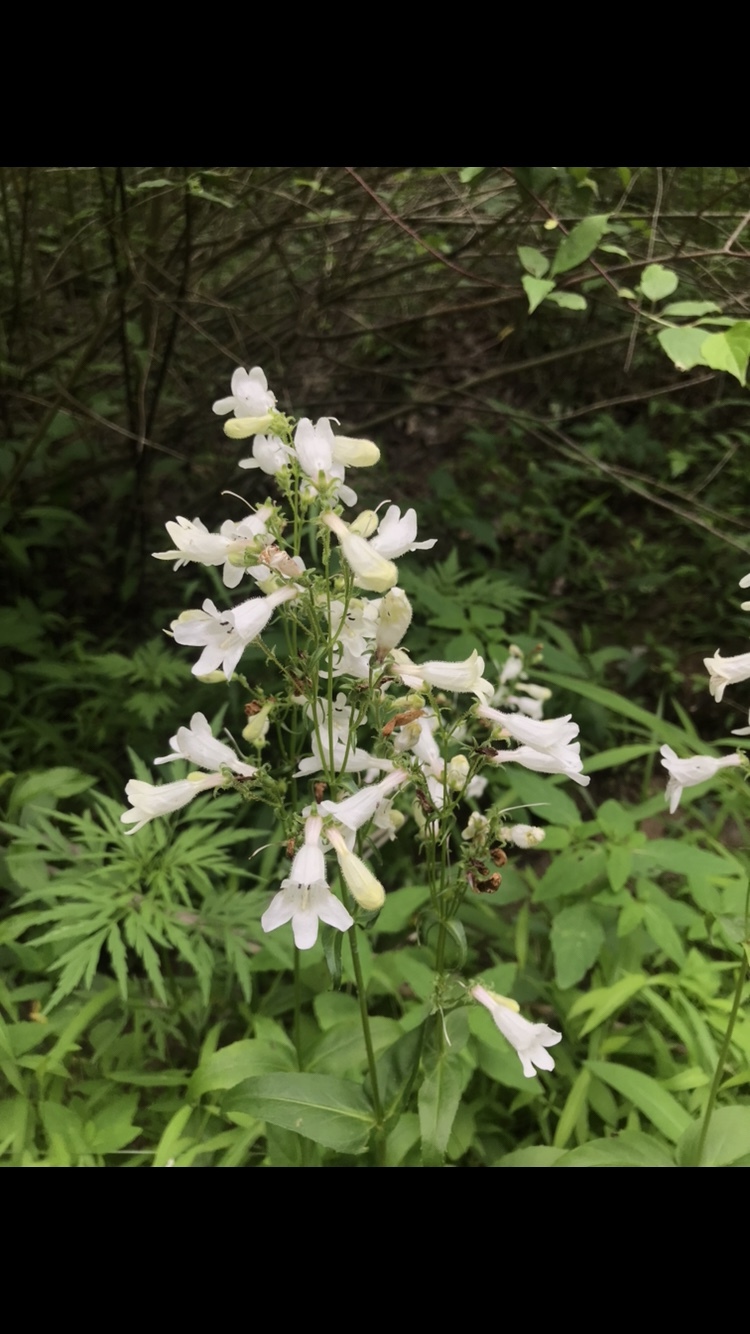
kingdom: Plantae
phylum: Tracheophyta
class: Magnoliopsida
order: Lamiales
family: Plantaginaceae
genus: Penstemon
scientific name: Penstemon digitalis
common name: Foxglove beardtongue
